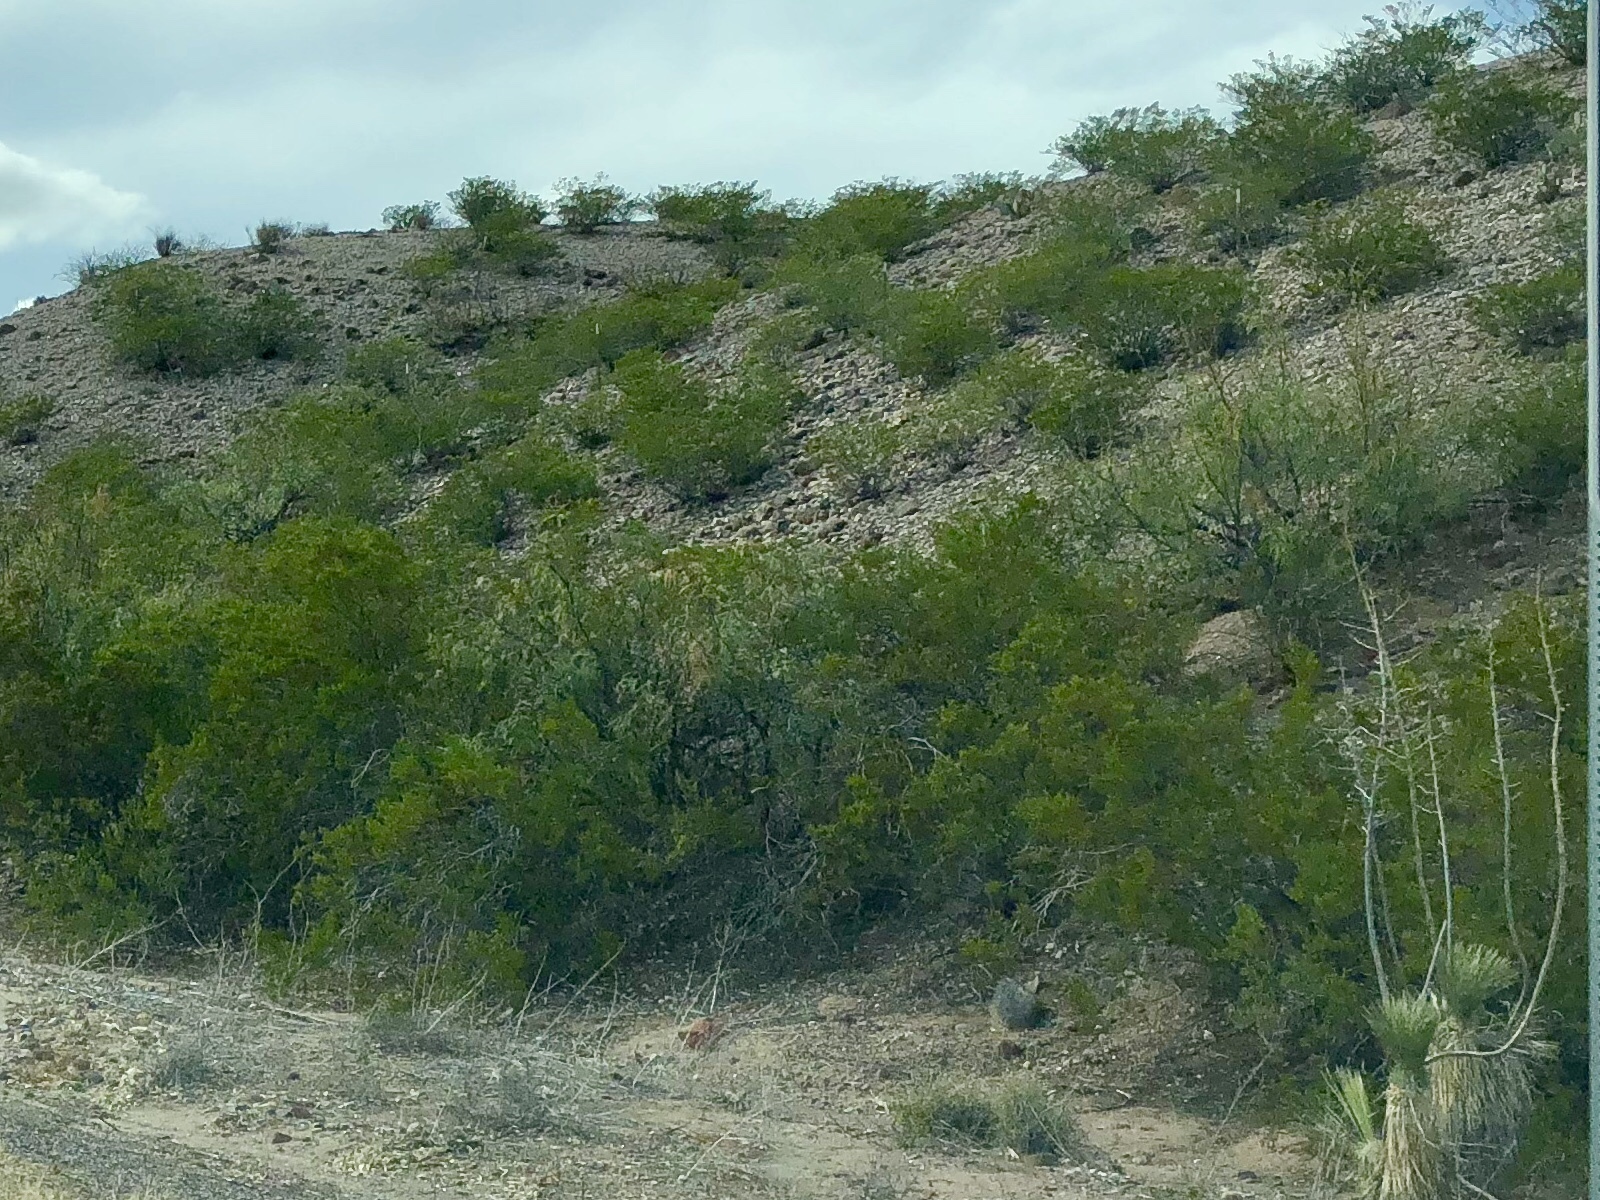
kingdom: Plantae
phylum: Tracheophyta
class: Magnoliopsida
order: Zygophyllales
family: Zygophyllaceae
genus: Larrea
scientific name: Larrea tridentata
